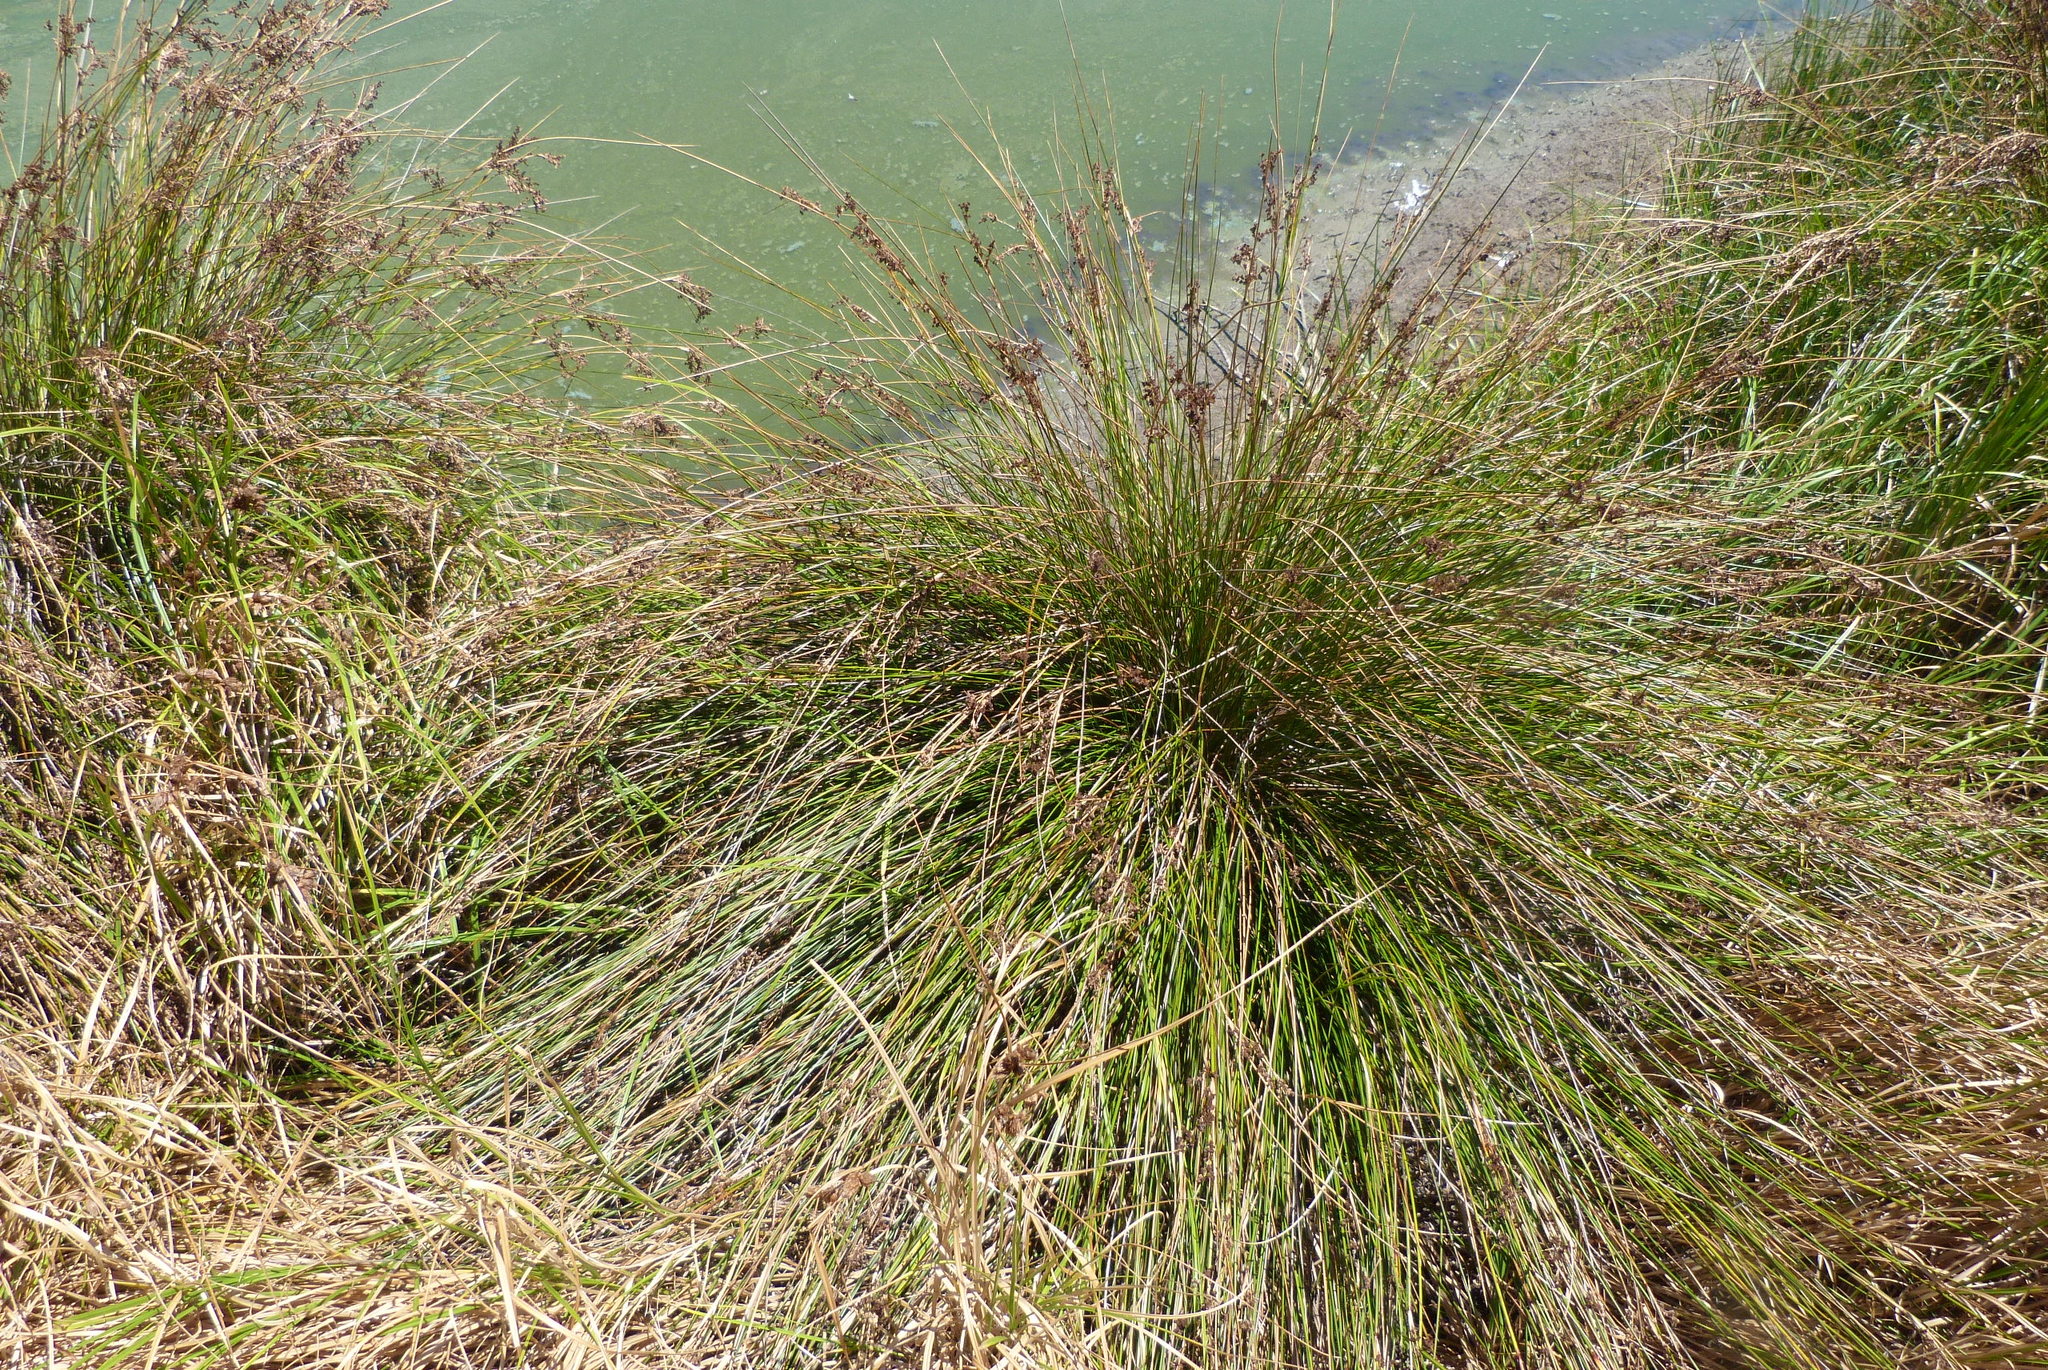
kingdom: Plantae
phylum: Tracheophyta
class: Liliopsida
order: Poales
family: Juncaceae
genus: Juncus
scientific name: Juncus kraussii
